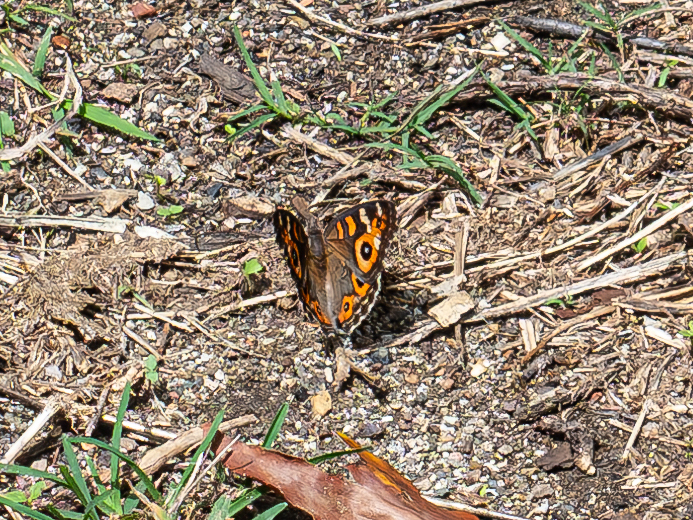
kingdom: Animalia
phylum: Arthropoda
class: Insecta
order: Lepidoptera
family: Nymphalidae
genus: Junonia
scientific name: Junonia villida
